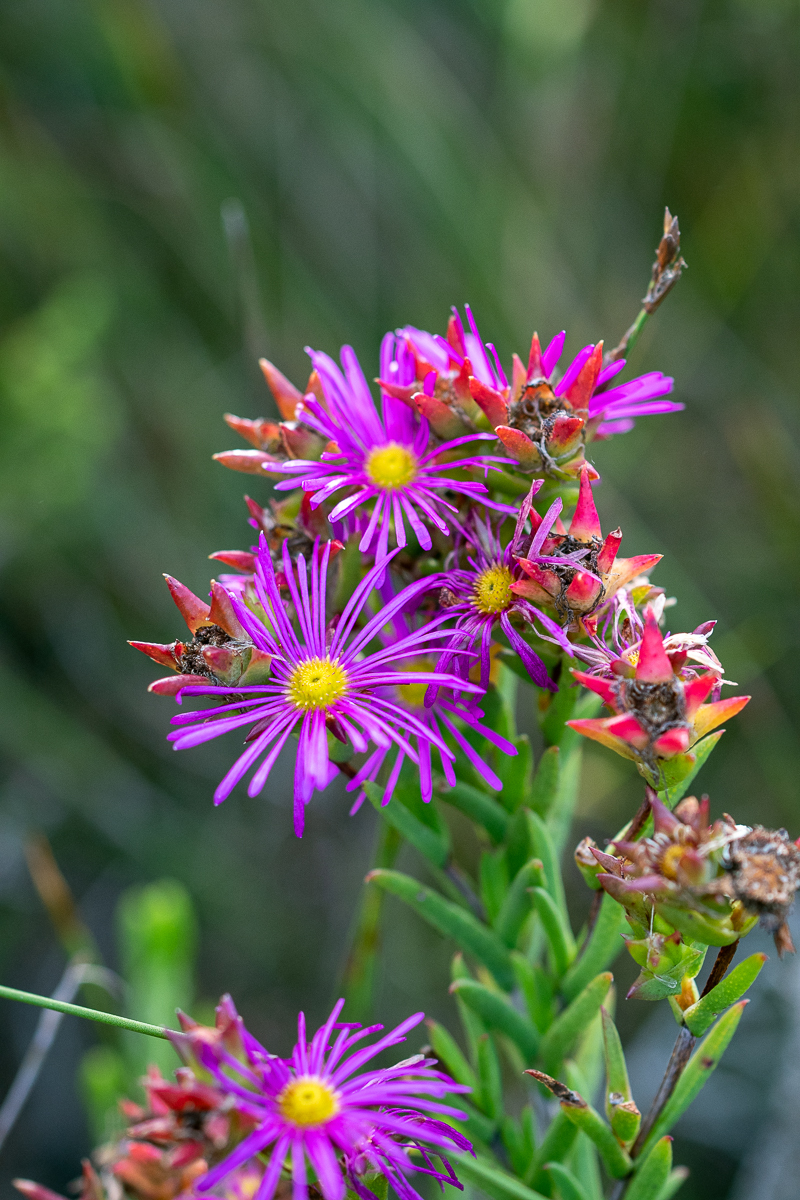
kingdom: Plantae
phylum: Tracheophyta
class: Magnoliopsida
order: Caryophyllales
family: Aizoaceae
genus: Erepsia
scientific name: Erepsia anceps
